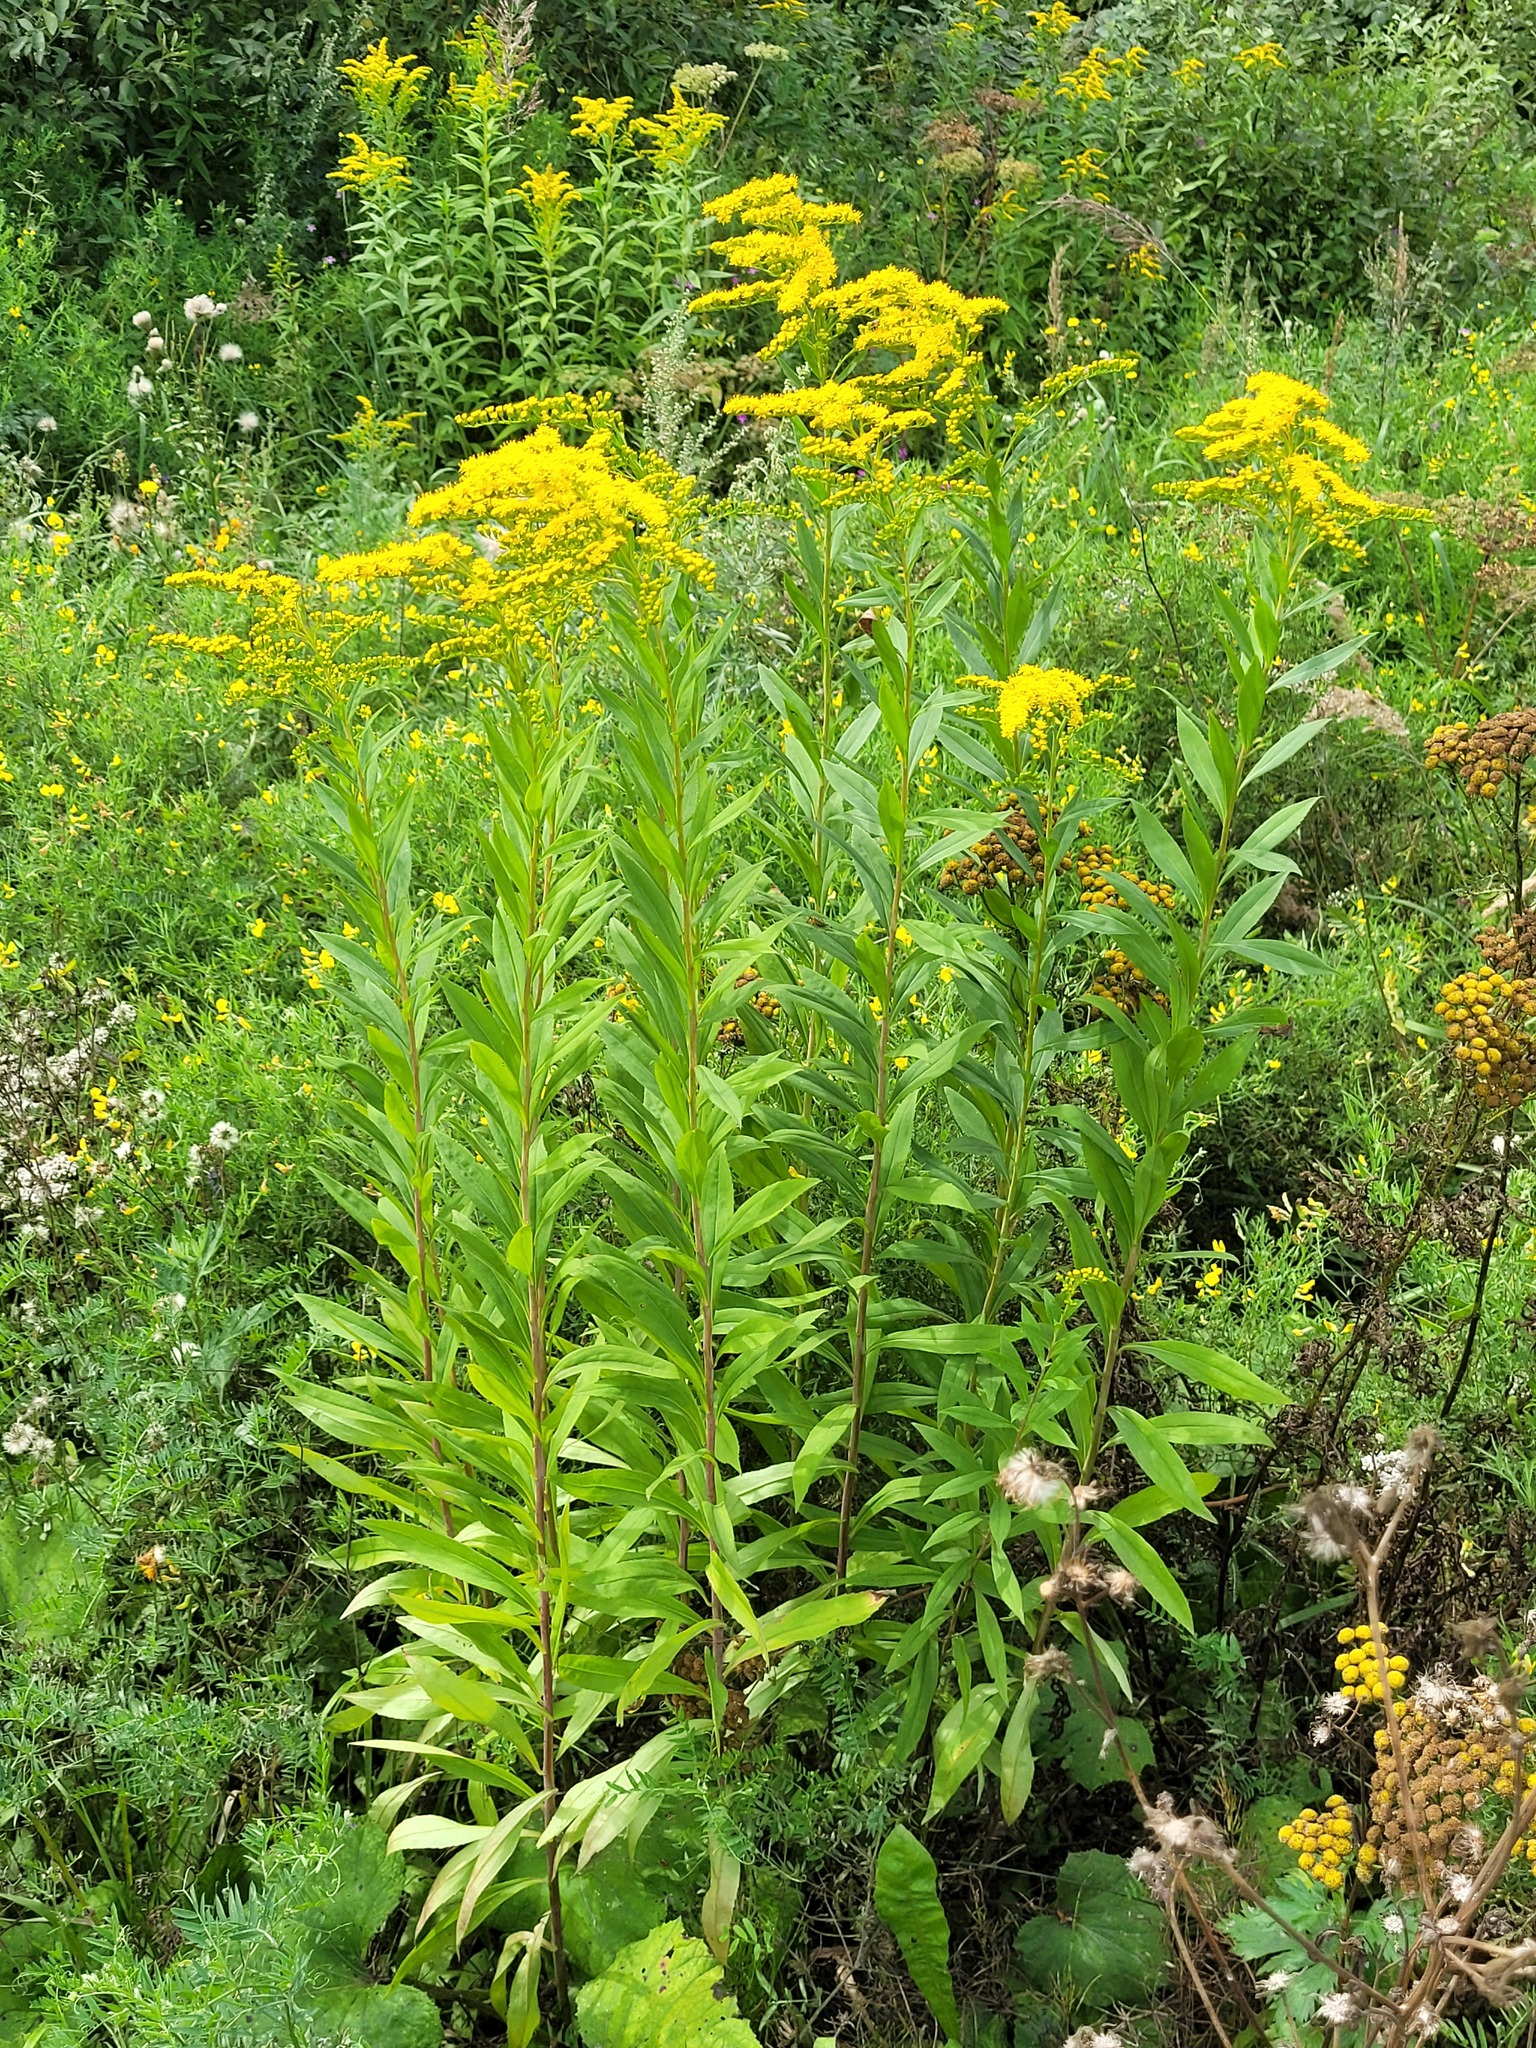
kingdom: Plantae
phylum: Tracheophyta
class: Magnoliopsida
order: Asterales
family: Asteraceae
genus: Solidago
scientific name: Solidago gigantea
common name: Giant goldenrod
